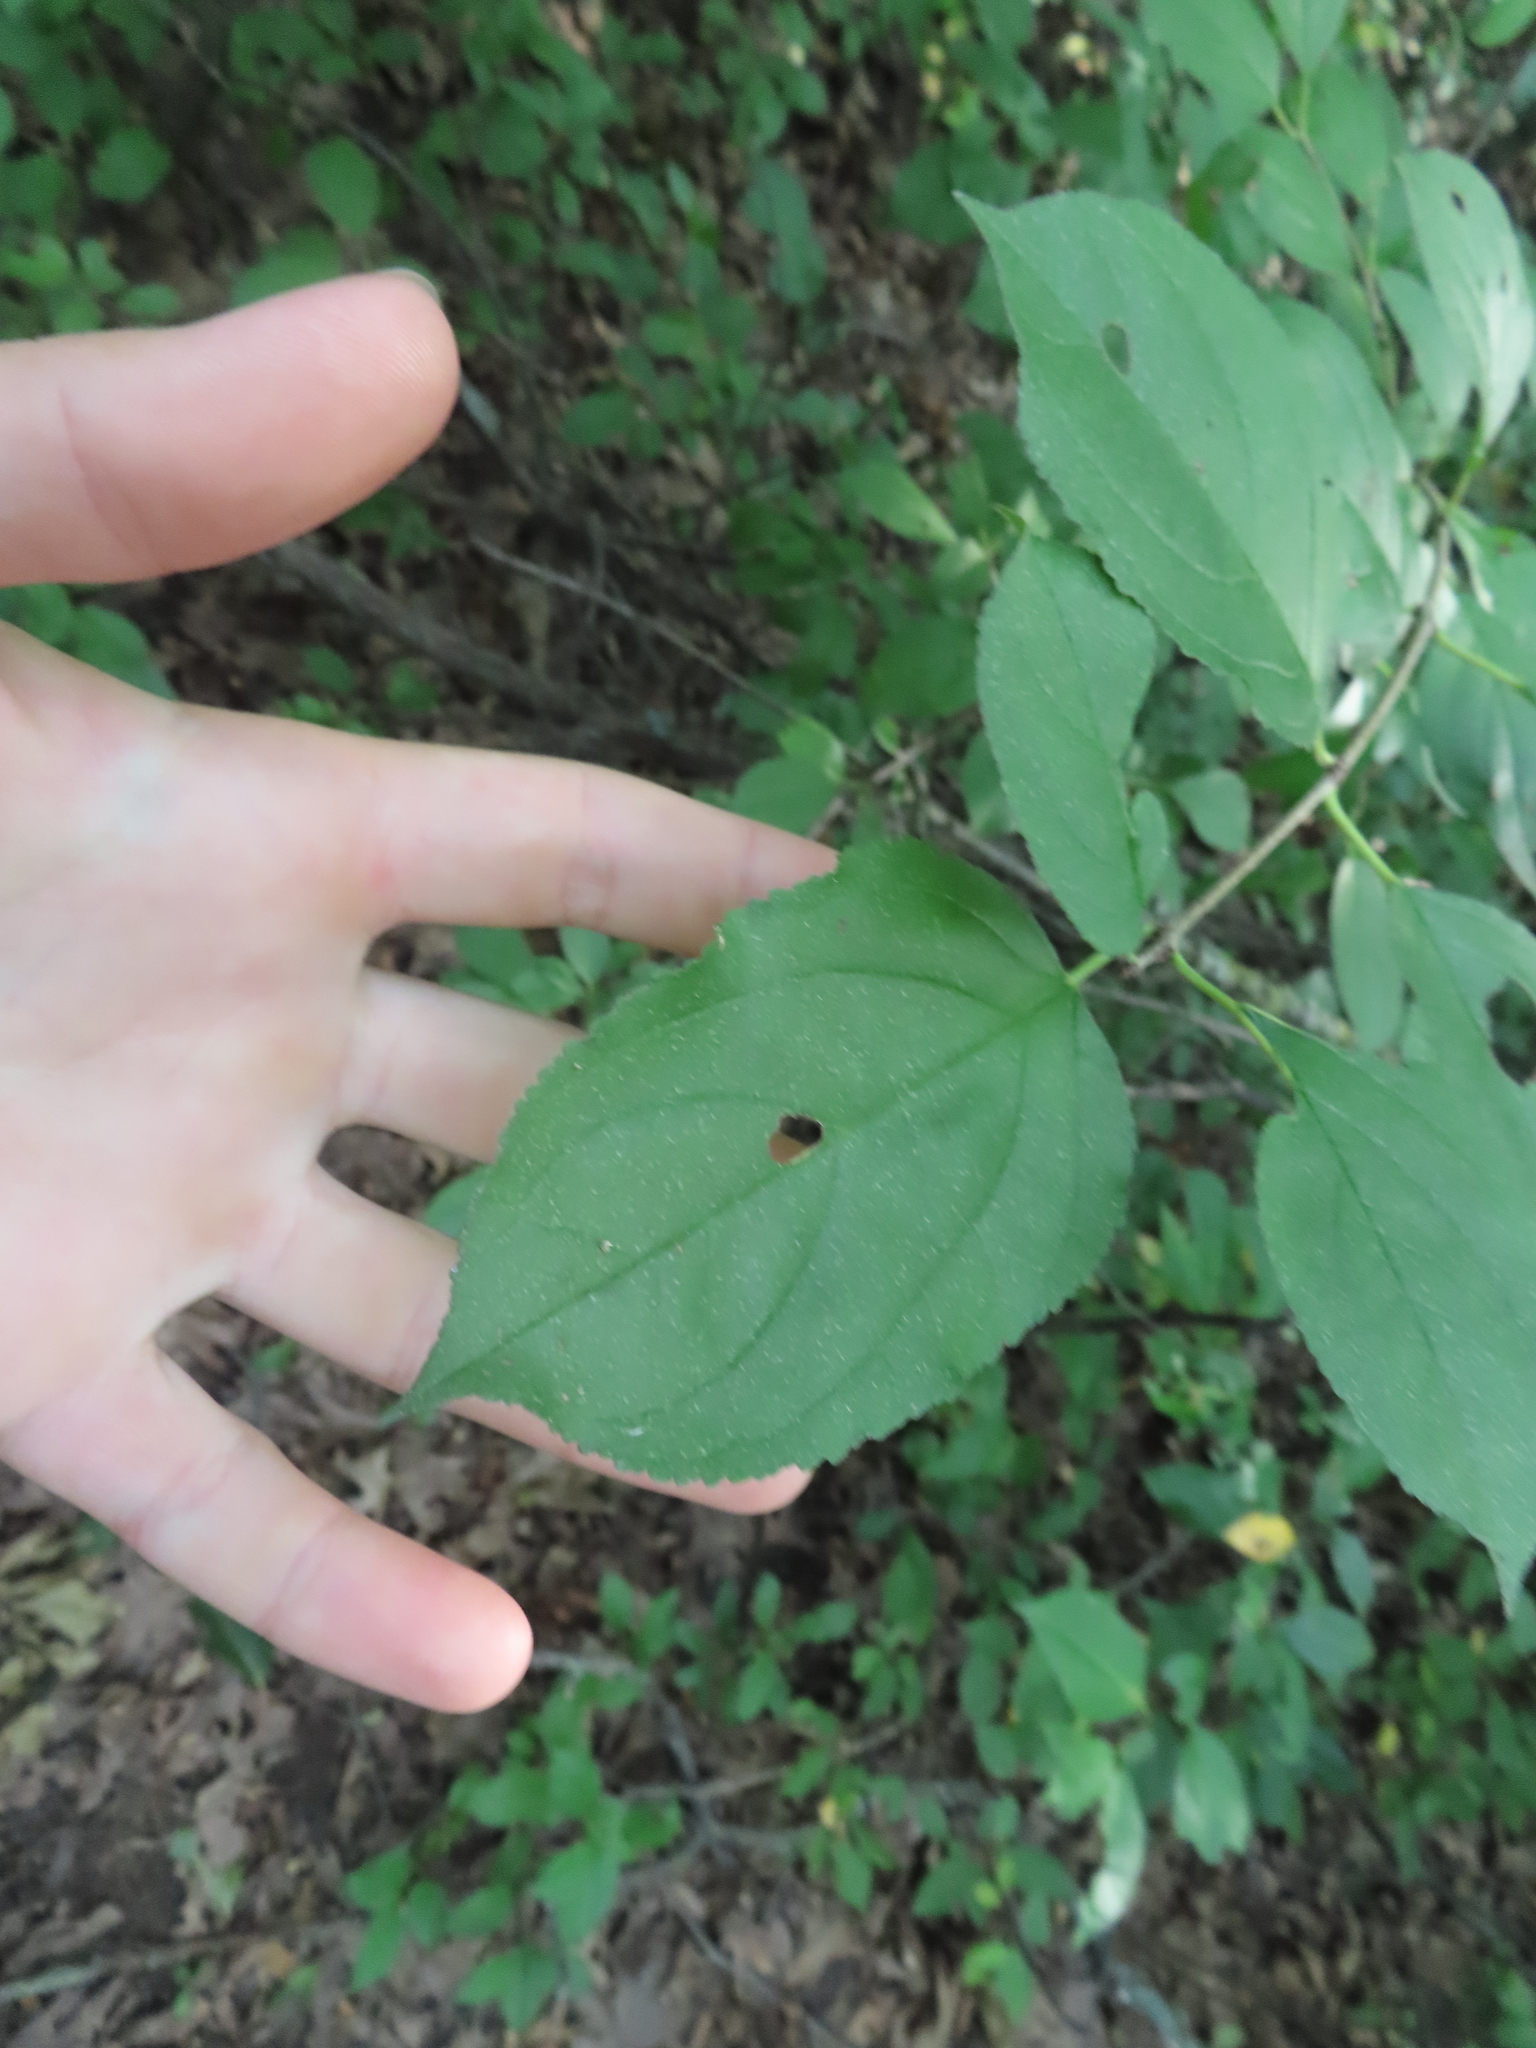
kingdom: Plantae
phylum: Tracheophyta
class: Magnoliopsida
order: Rosales
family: Rhamnaceae
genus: Rhamnus
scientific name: Rhamnus cathartica
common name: Common buckthorn
